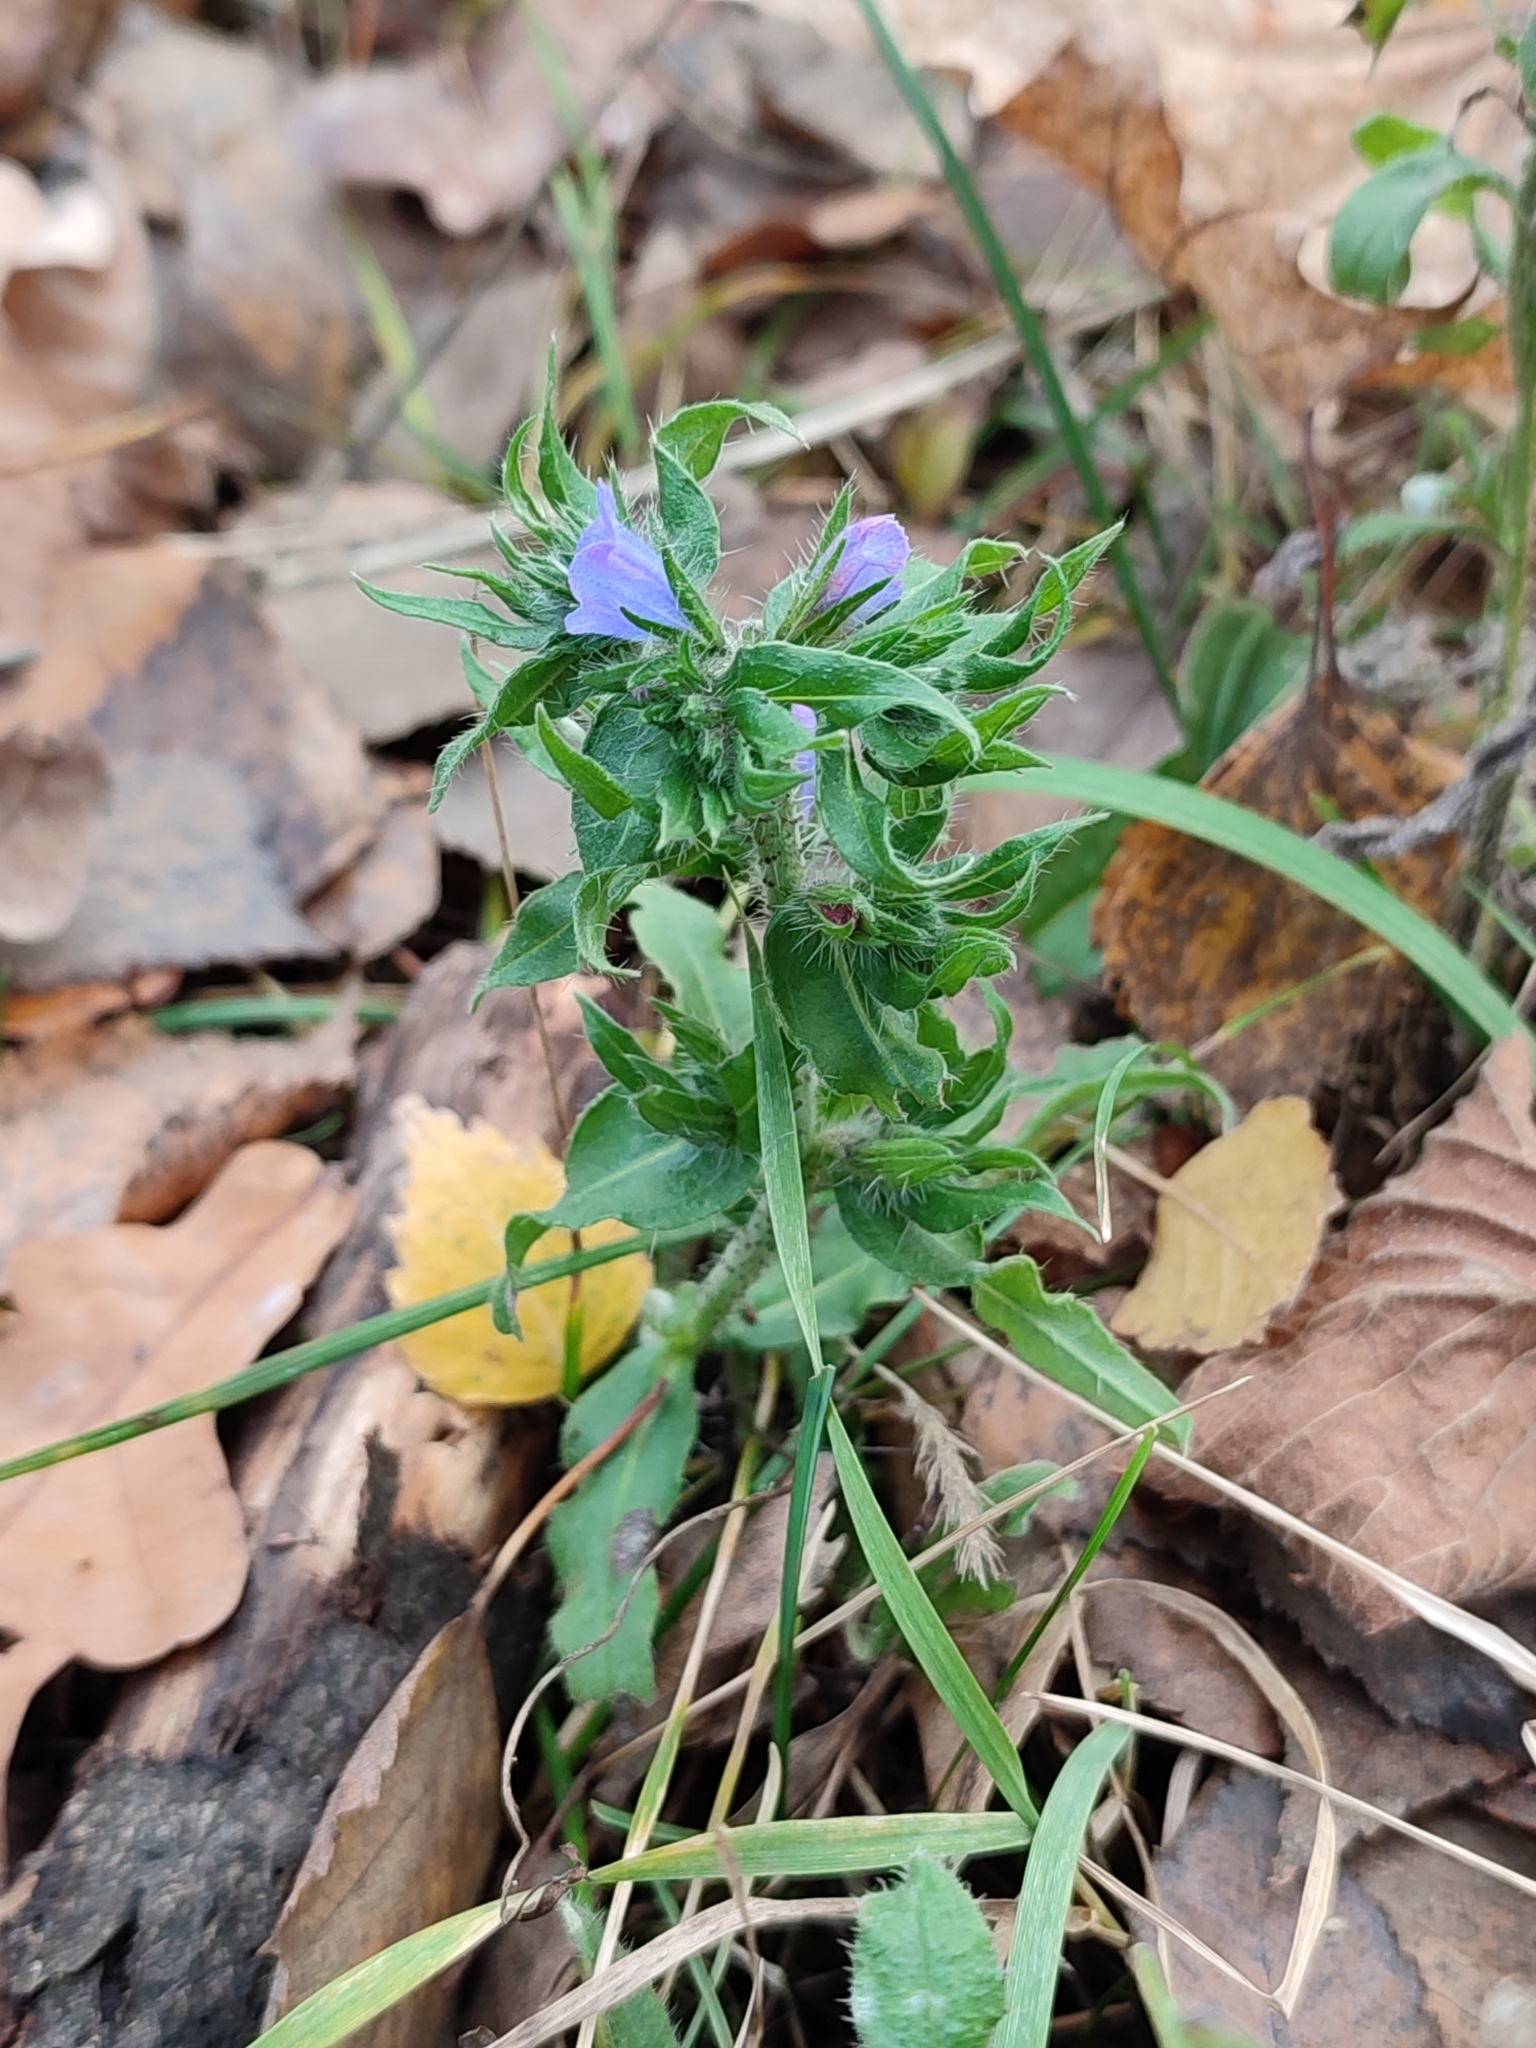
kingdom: Plantae
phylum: Tracheophyta
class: Magnoliopsida
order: Boraginales
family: Boraginaceae
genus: Echium
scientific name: Echium vulgare
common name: Common viper's bugloss
